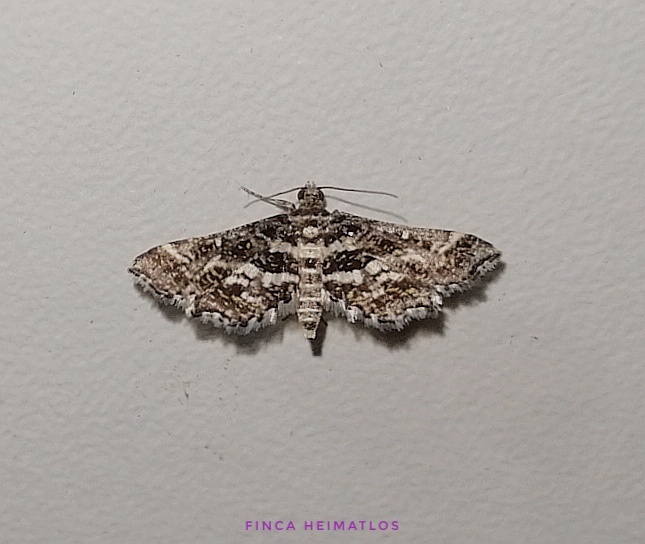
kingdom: Animalia
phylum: Arthropoda
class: Insecta
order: Lepidoptera
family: Crambidae
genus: Diasemiopsis
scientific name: Diasemiopsis ramburialis
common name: Vagrant china-mark
